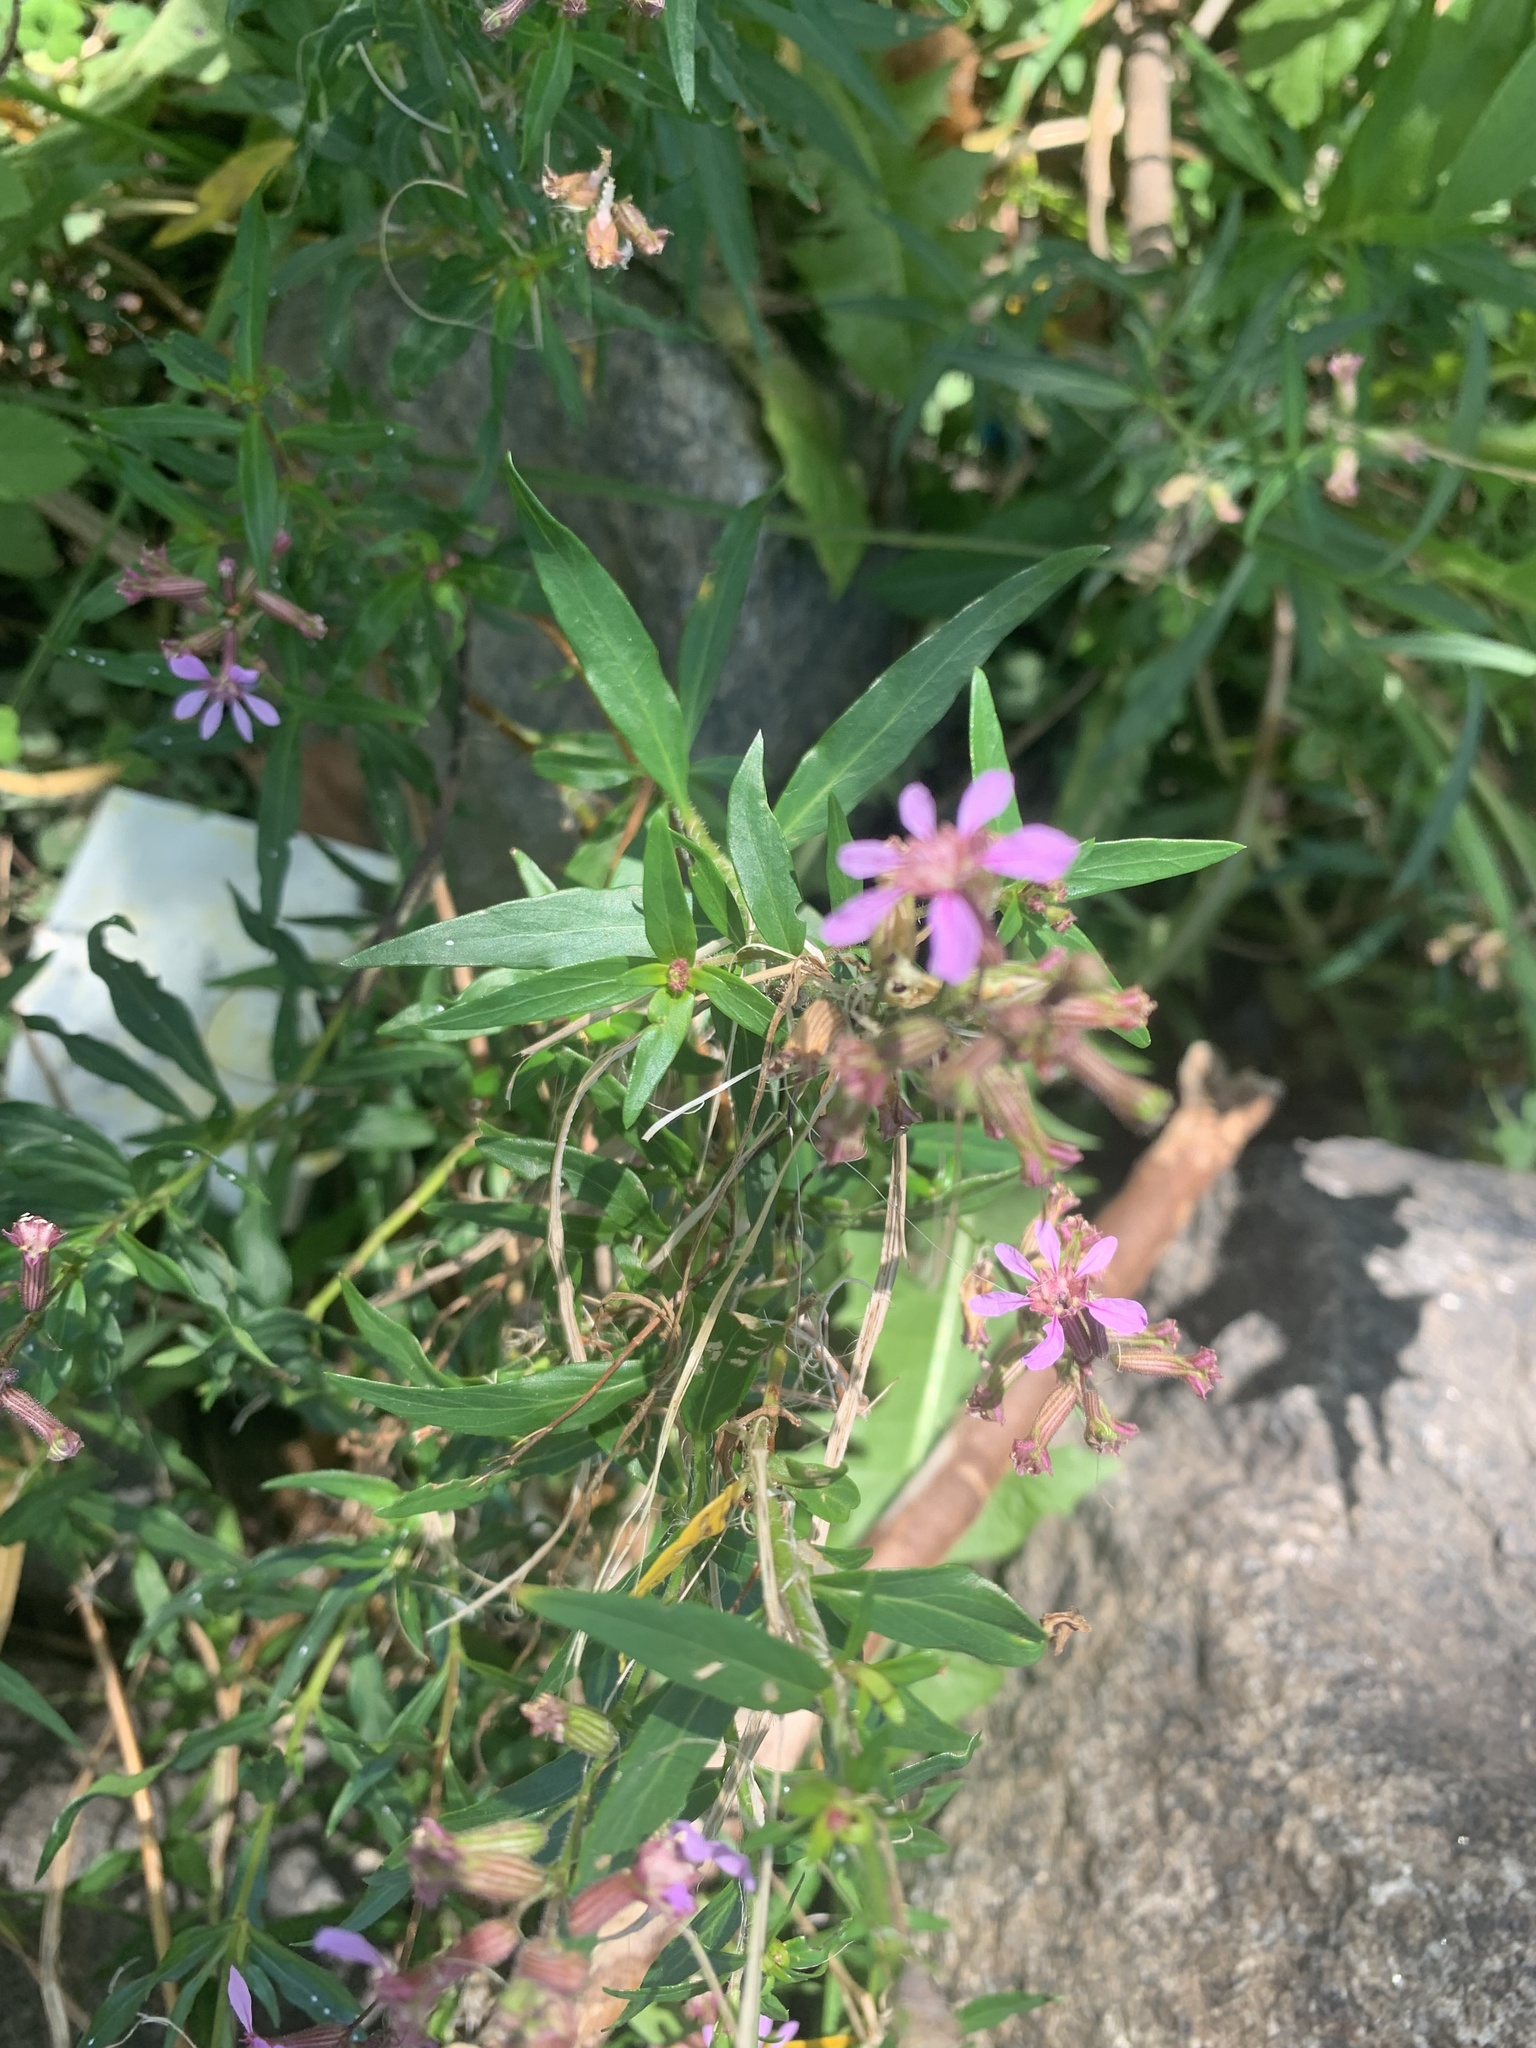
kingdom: Plantae
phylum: Tracheophyta
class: Magnoliopsida
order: Myrtales
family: Lythraceae
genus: Cuphea
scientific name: Cuphea fruticosa
